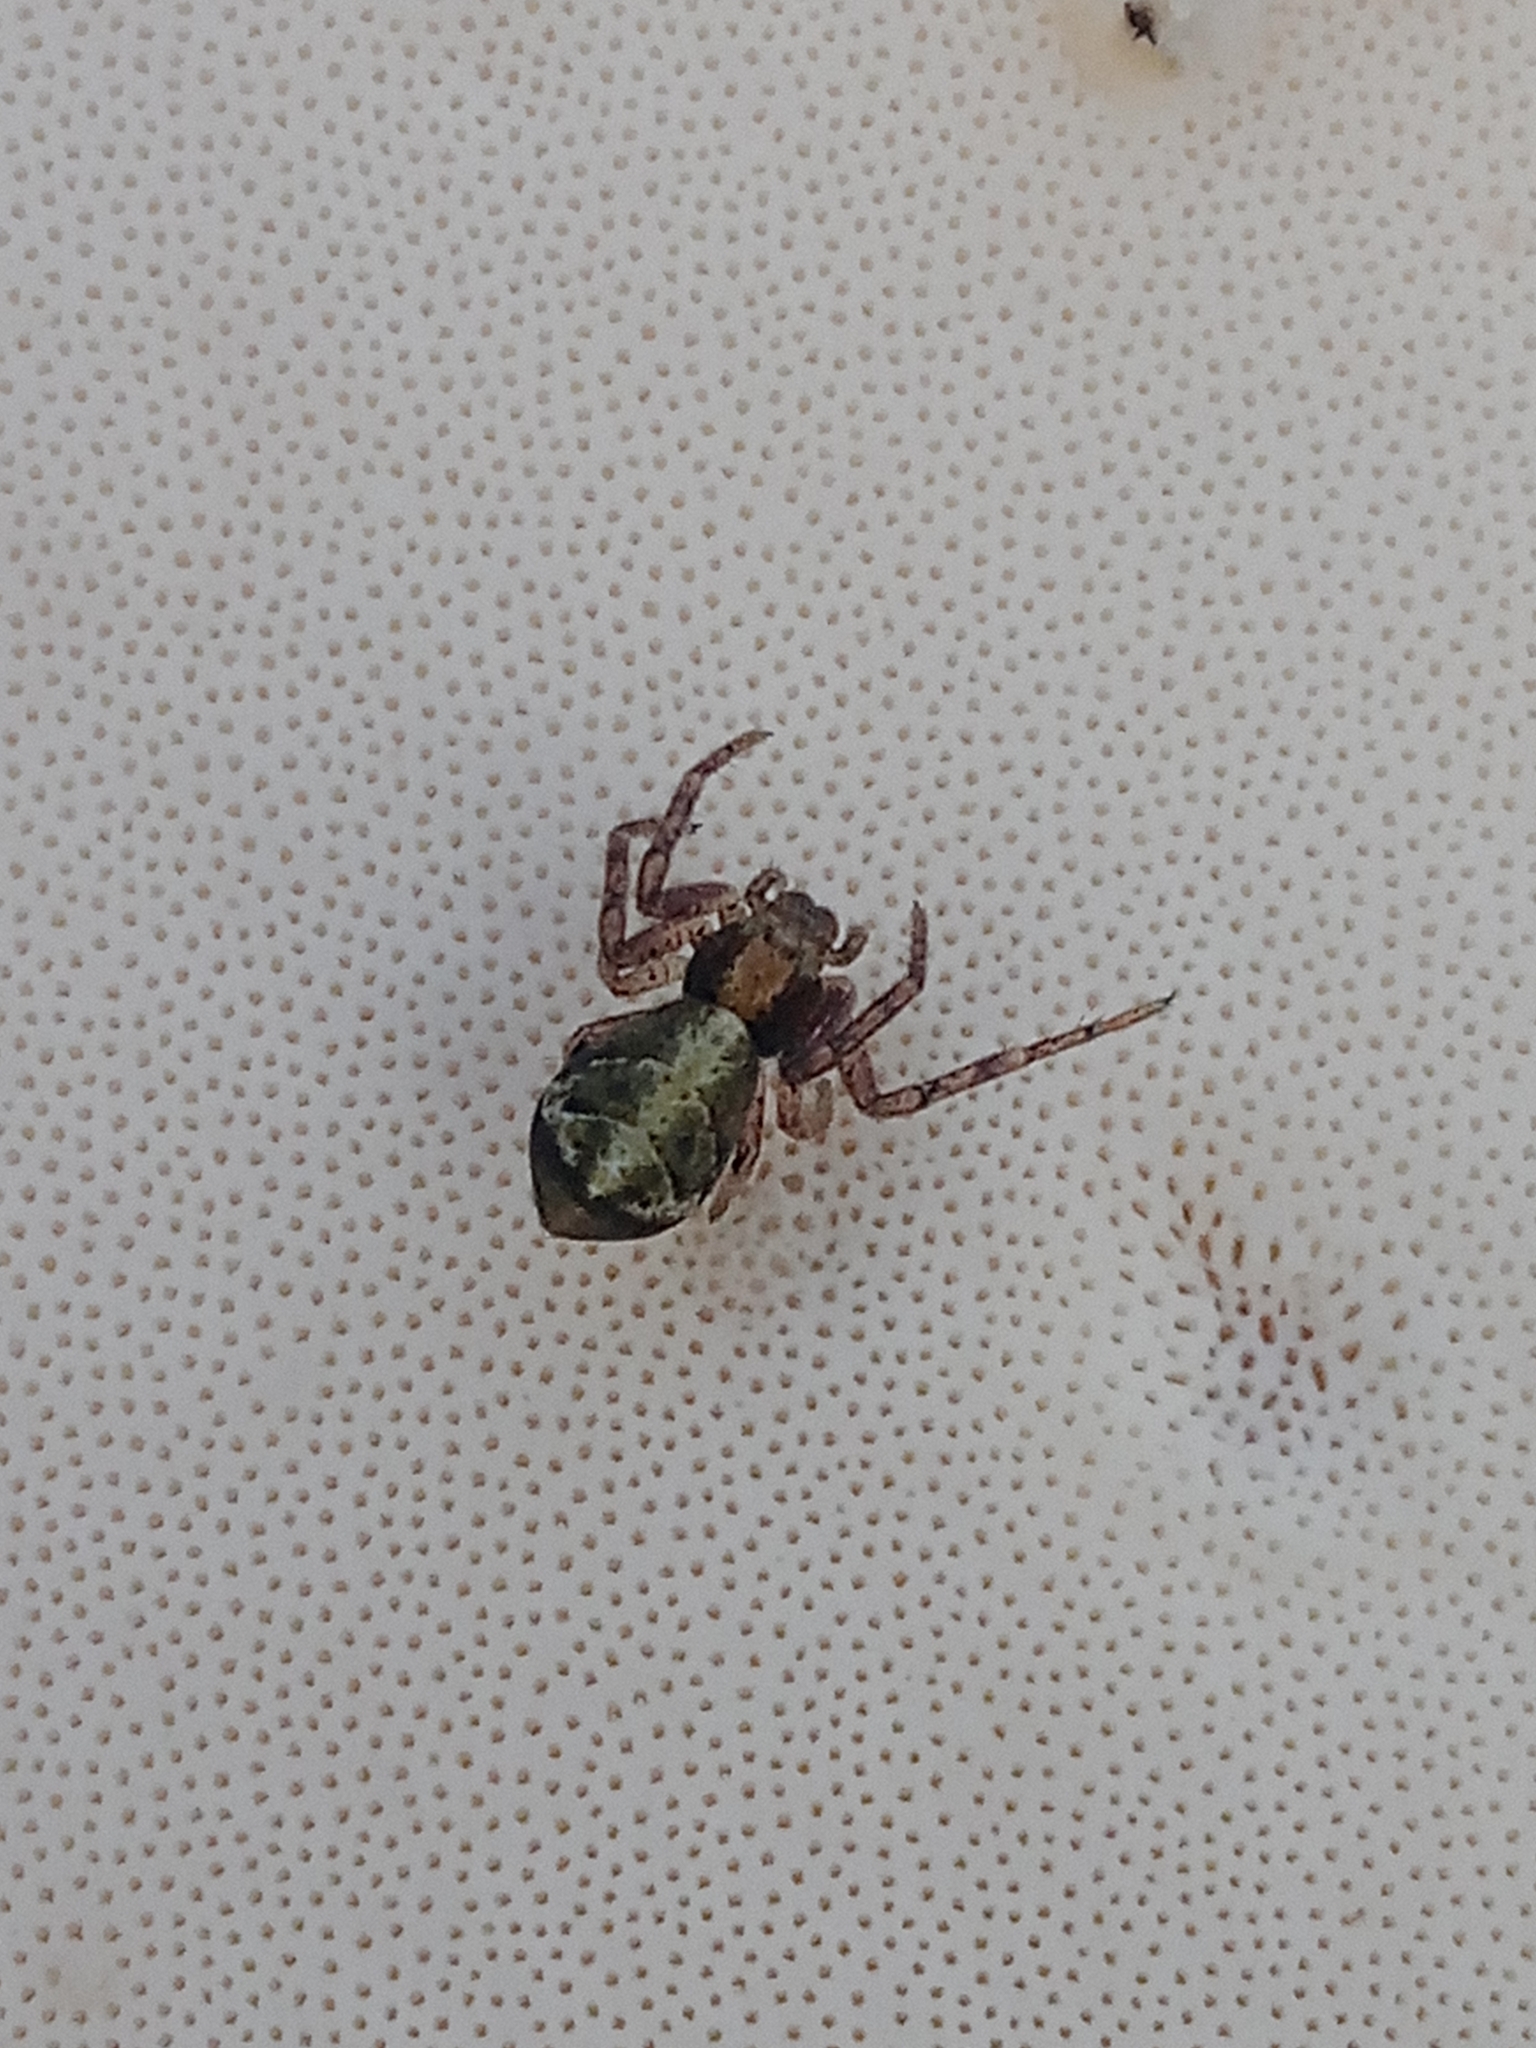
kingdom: Animalia
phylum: Arthropoda
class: Arachnida
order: Araneae
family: Thomisidae
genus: Tmarus
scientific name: Tmarus piger
